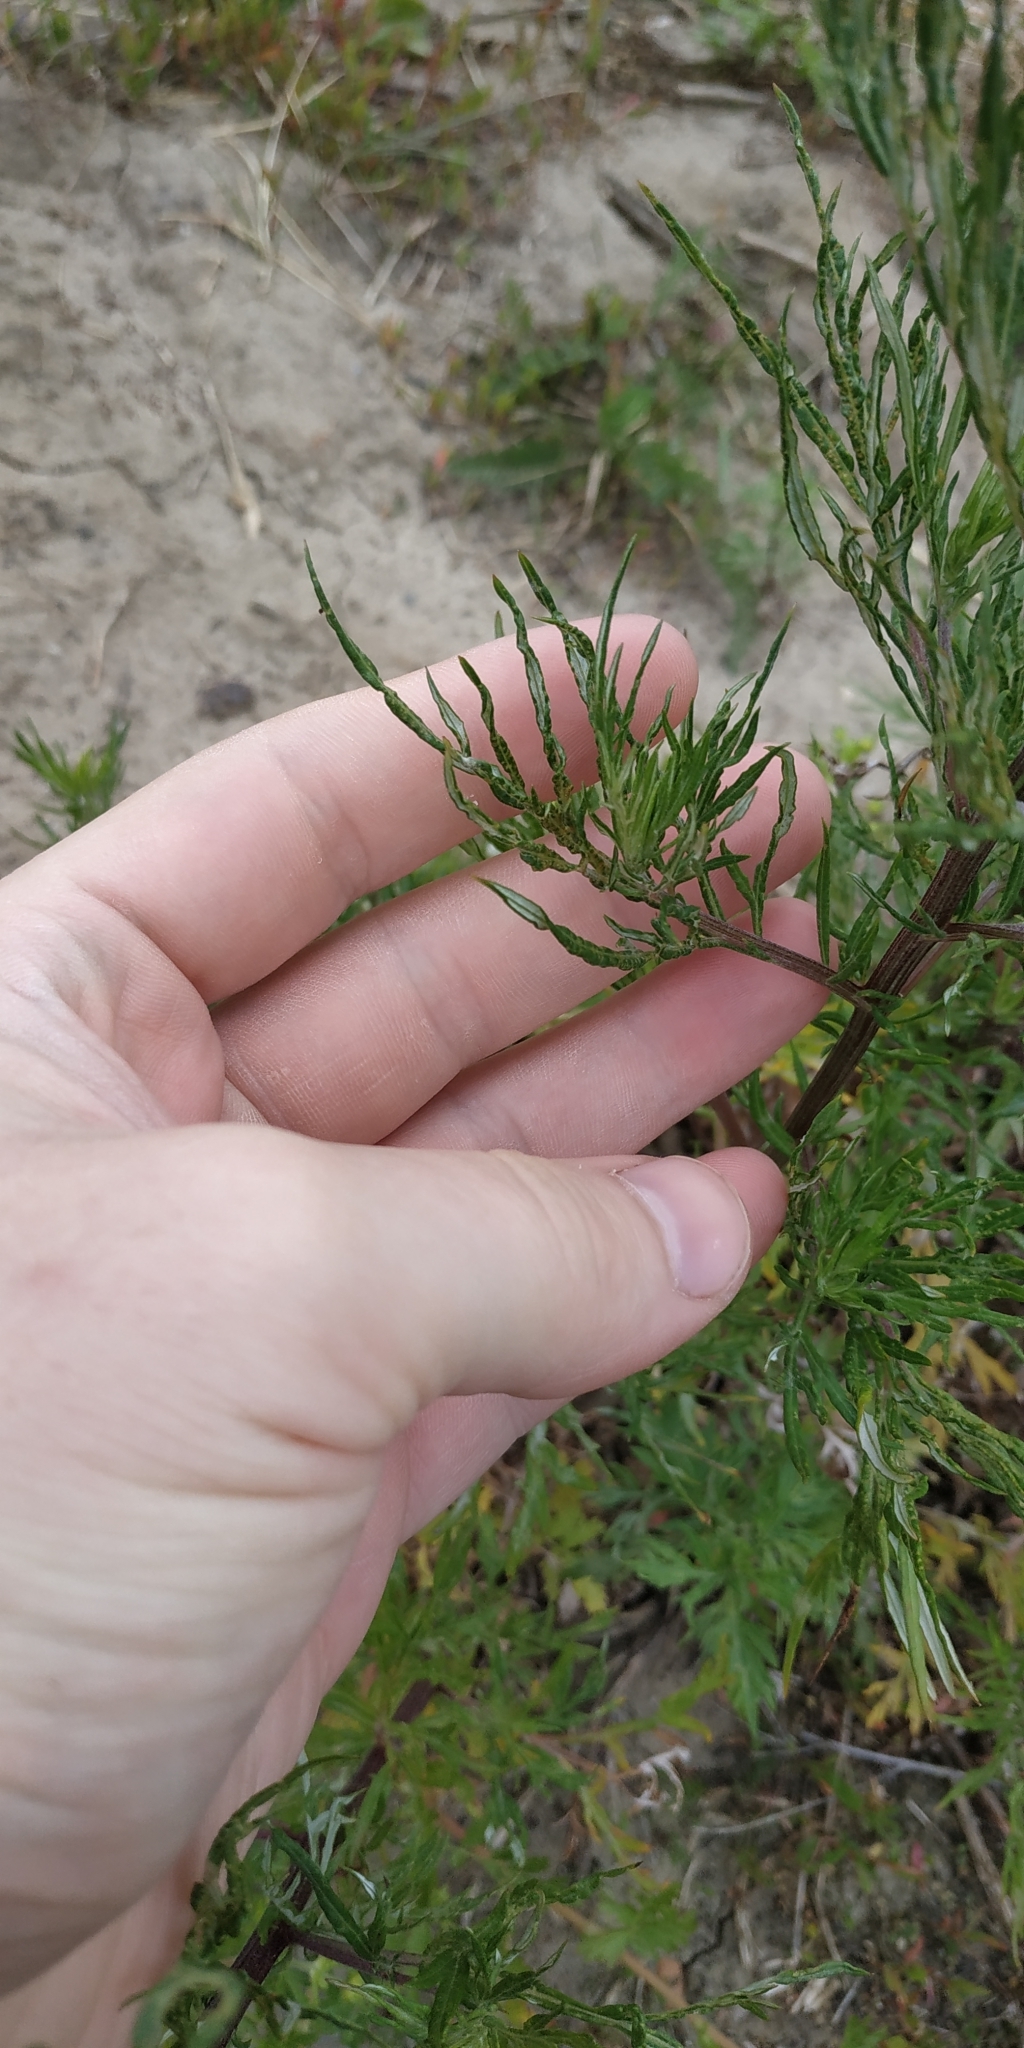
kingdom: Plantae
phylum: Tracheophyta
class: Magnoliopsida
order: Asterales
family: Asteraceae
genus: Artemisia
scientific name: Artemisia vulgaris
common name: Mugwort
